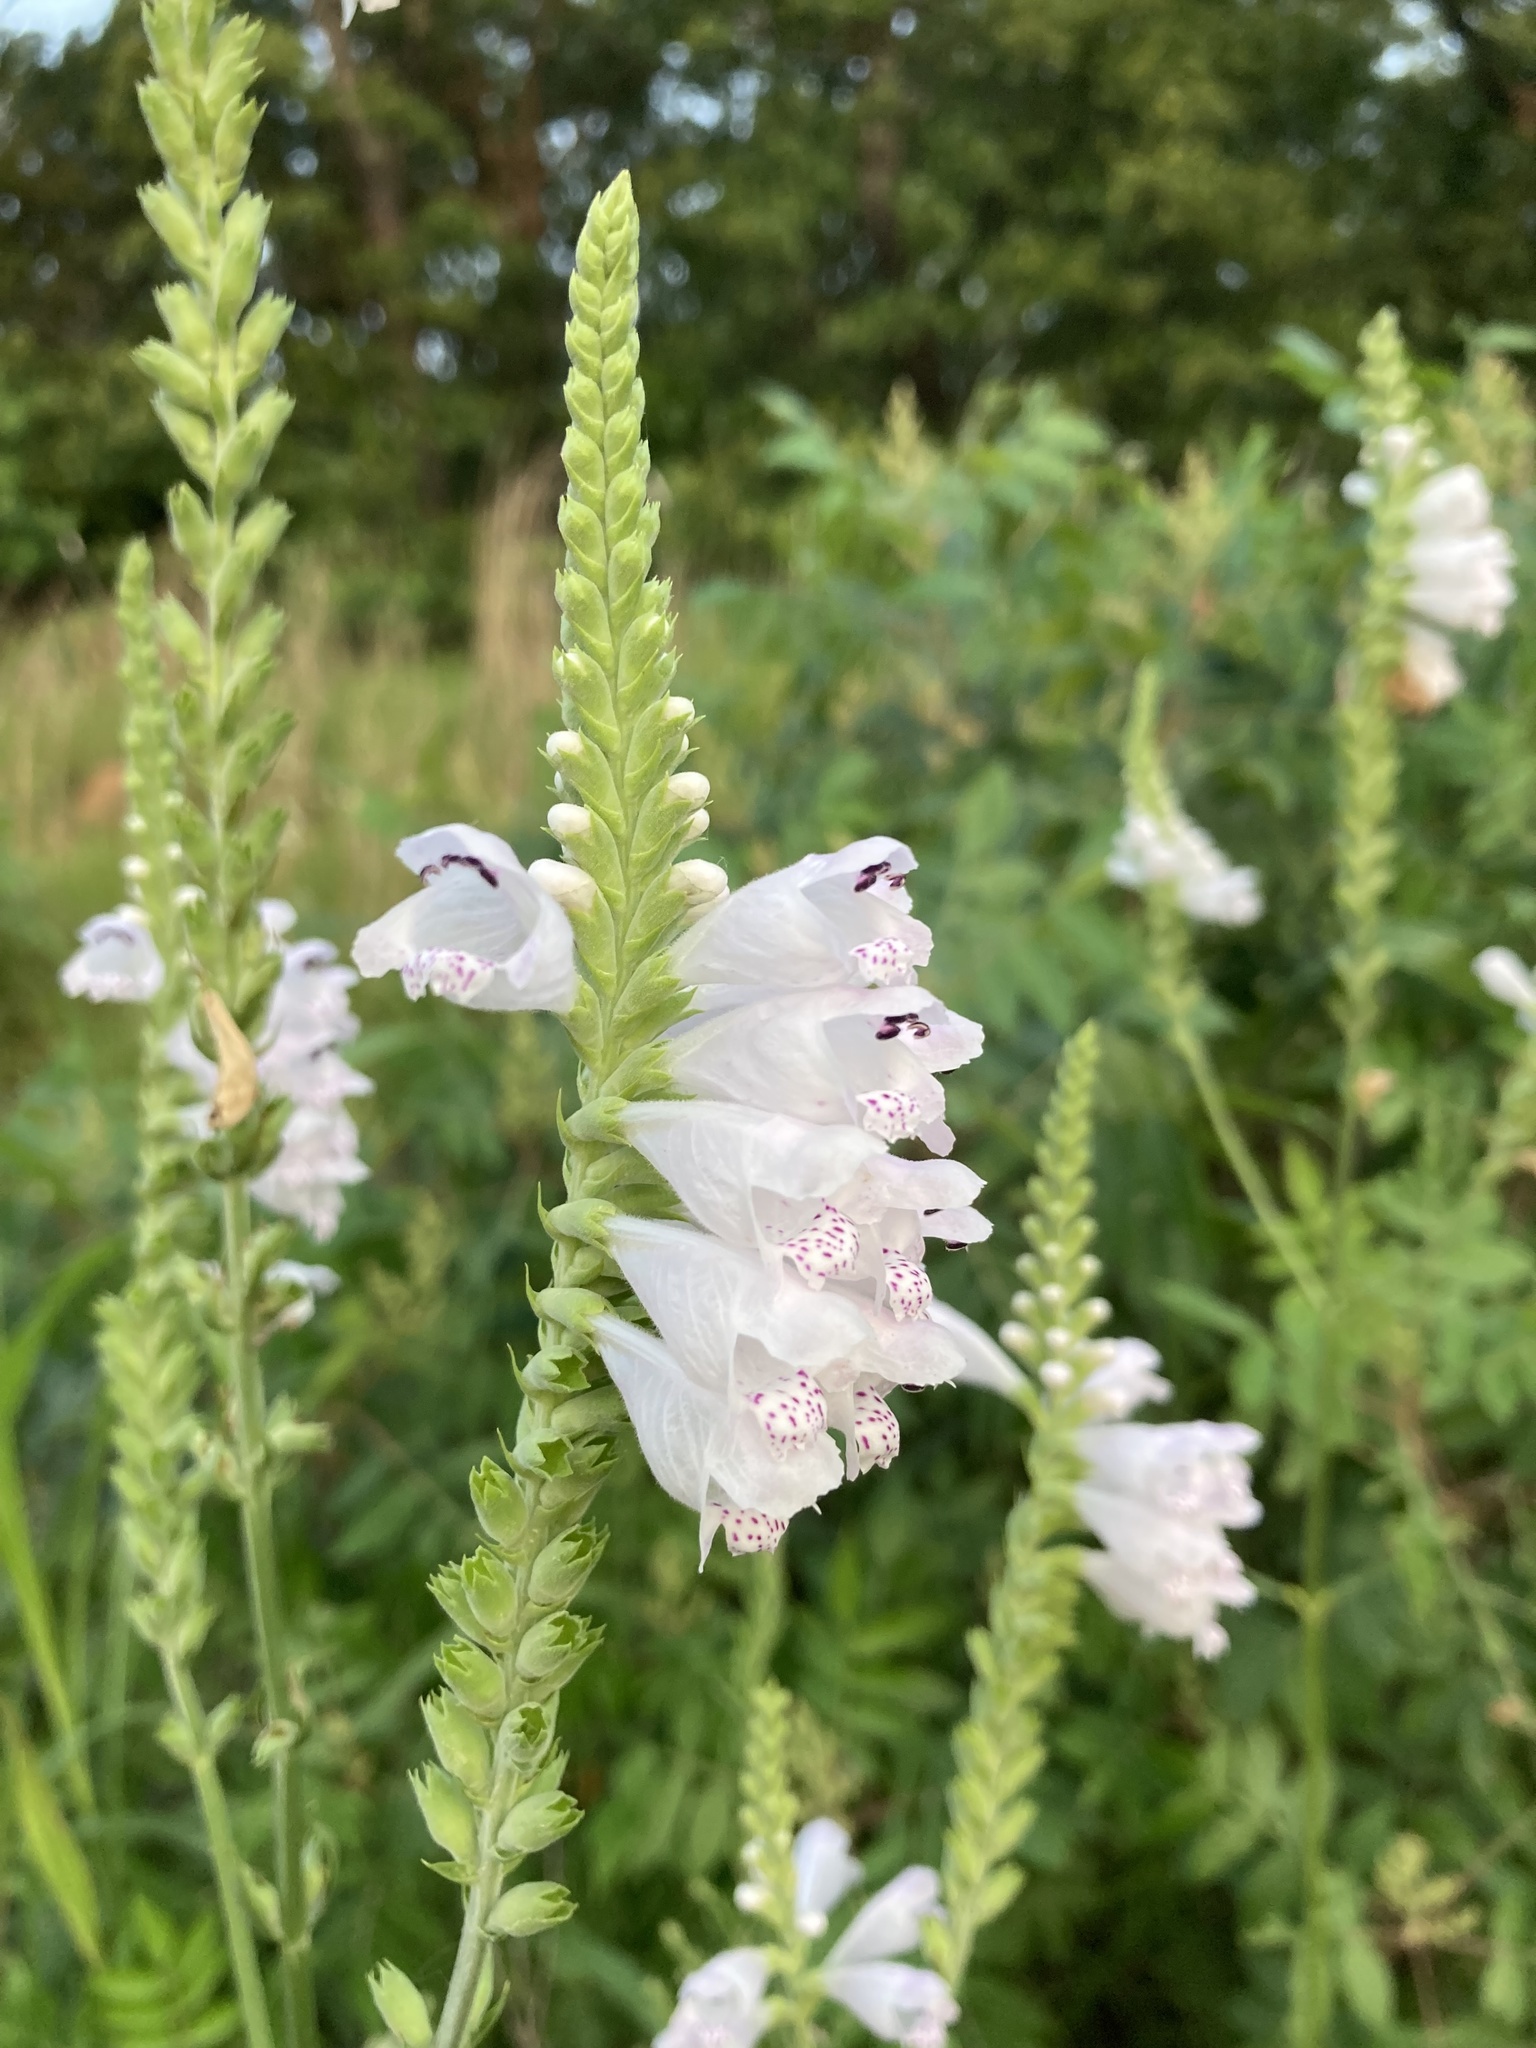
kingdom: Plantae
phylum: Tracheophyta
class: Magnoliopsida
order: Lamiales
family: Lamiaceae
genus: Physostegia
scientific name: Physostegia angustifolia
